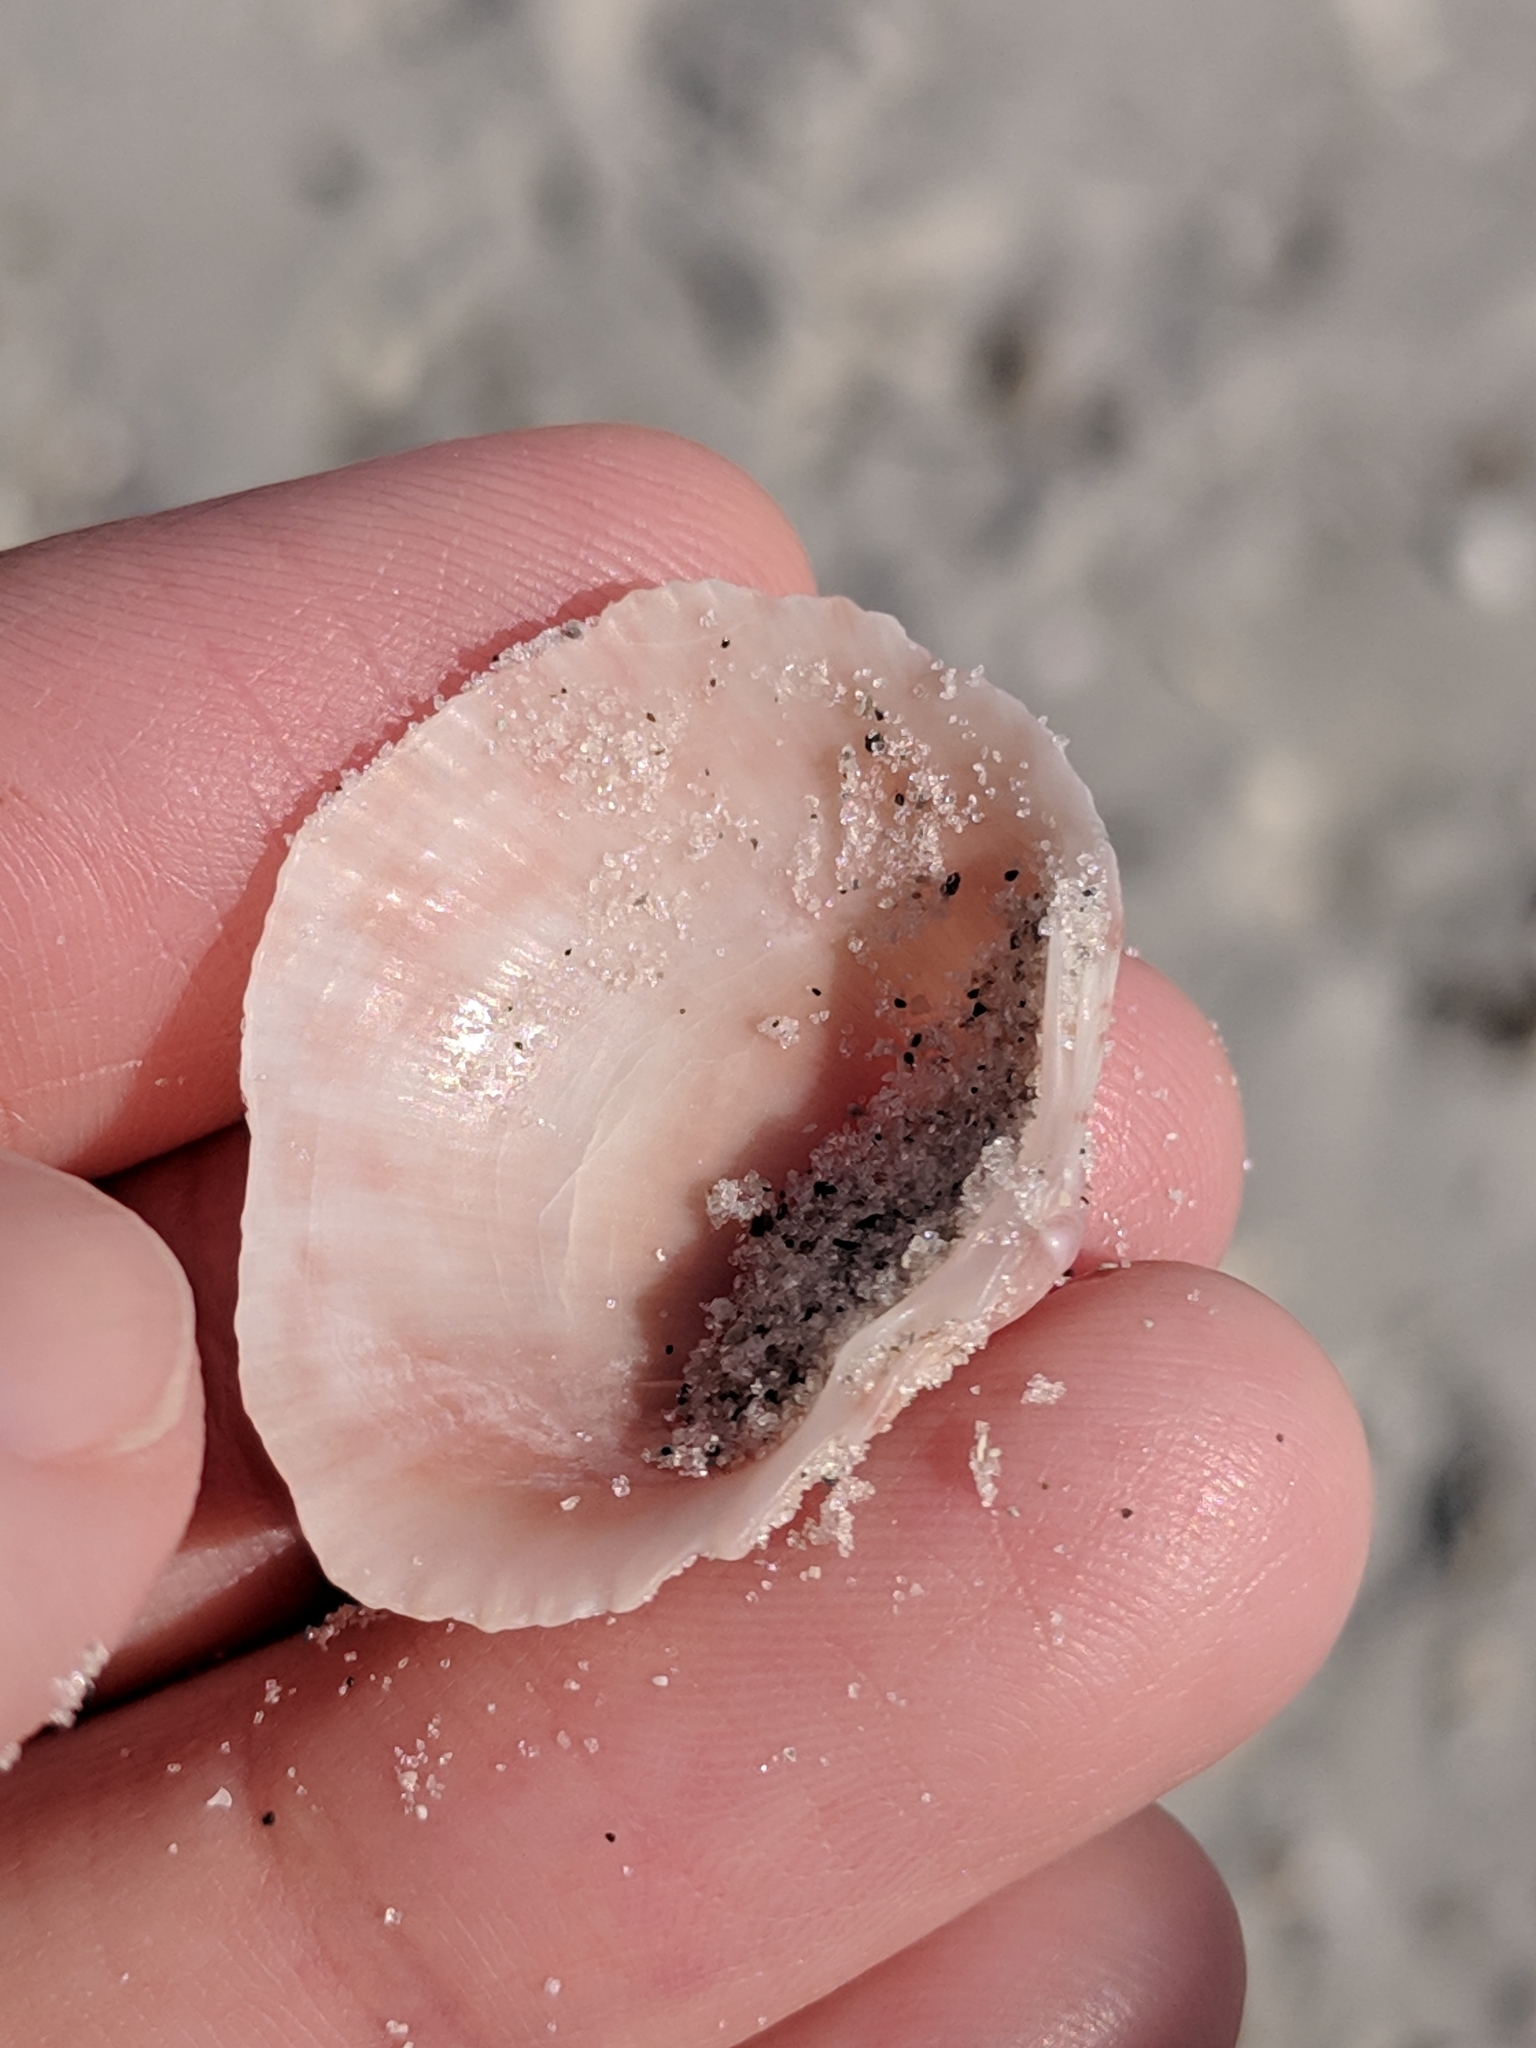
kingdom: Animalia
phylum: Mollusca
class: Bivalvia
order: Cardiida
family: Cardiidae
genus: Papyridea
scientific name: Papyridea lata
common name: Broad papercockle
